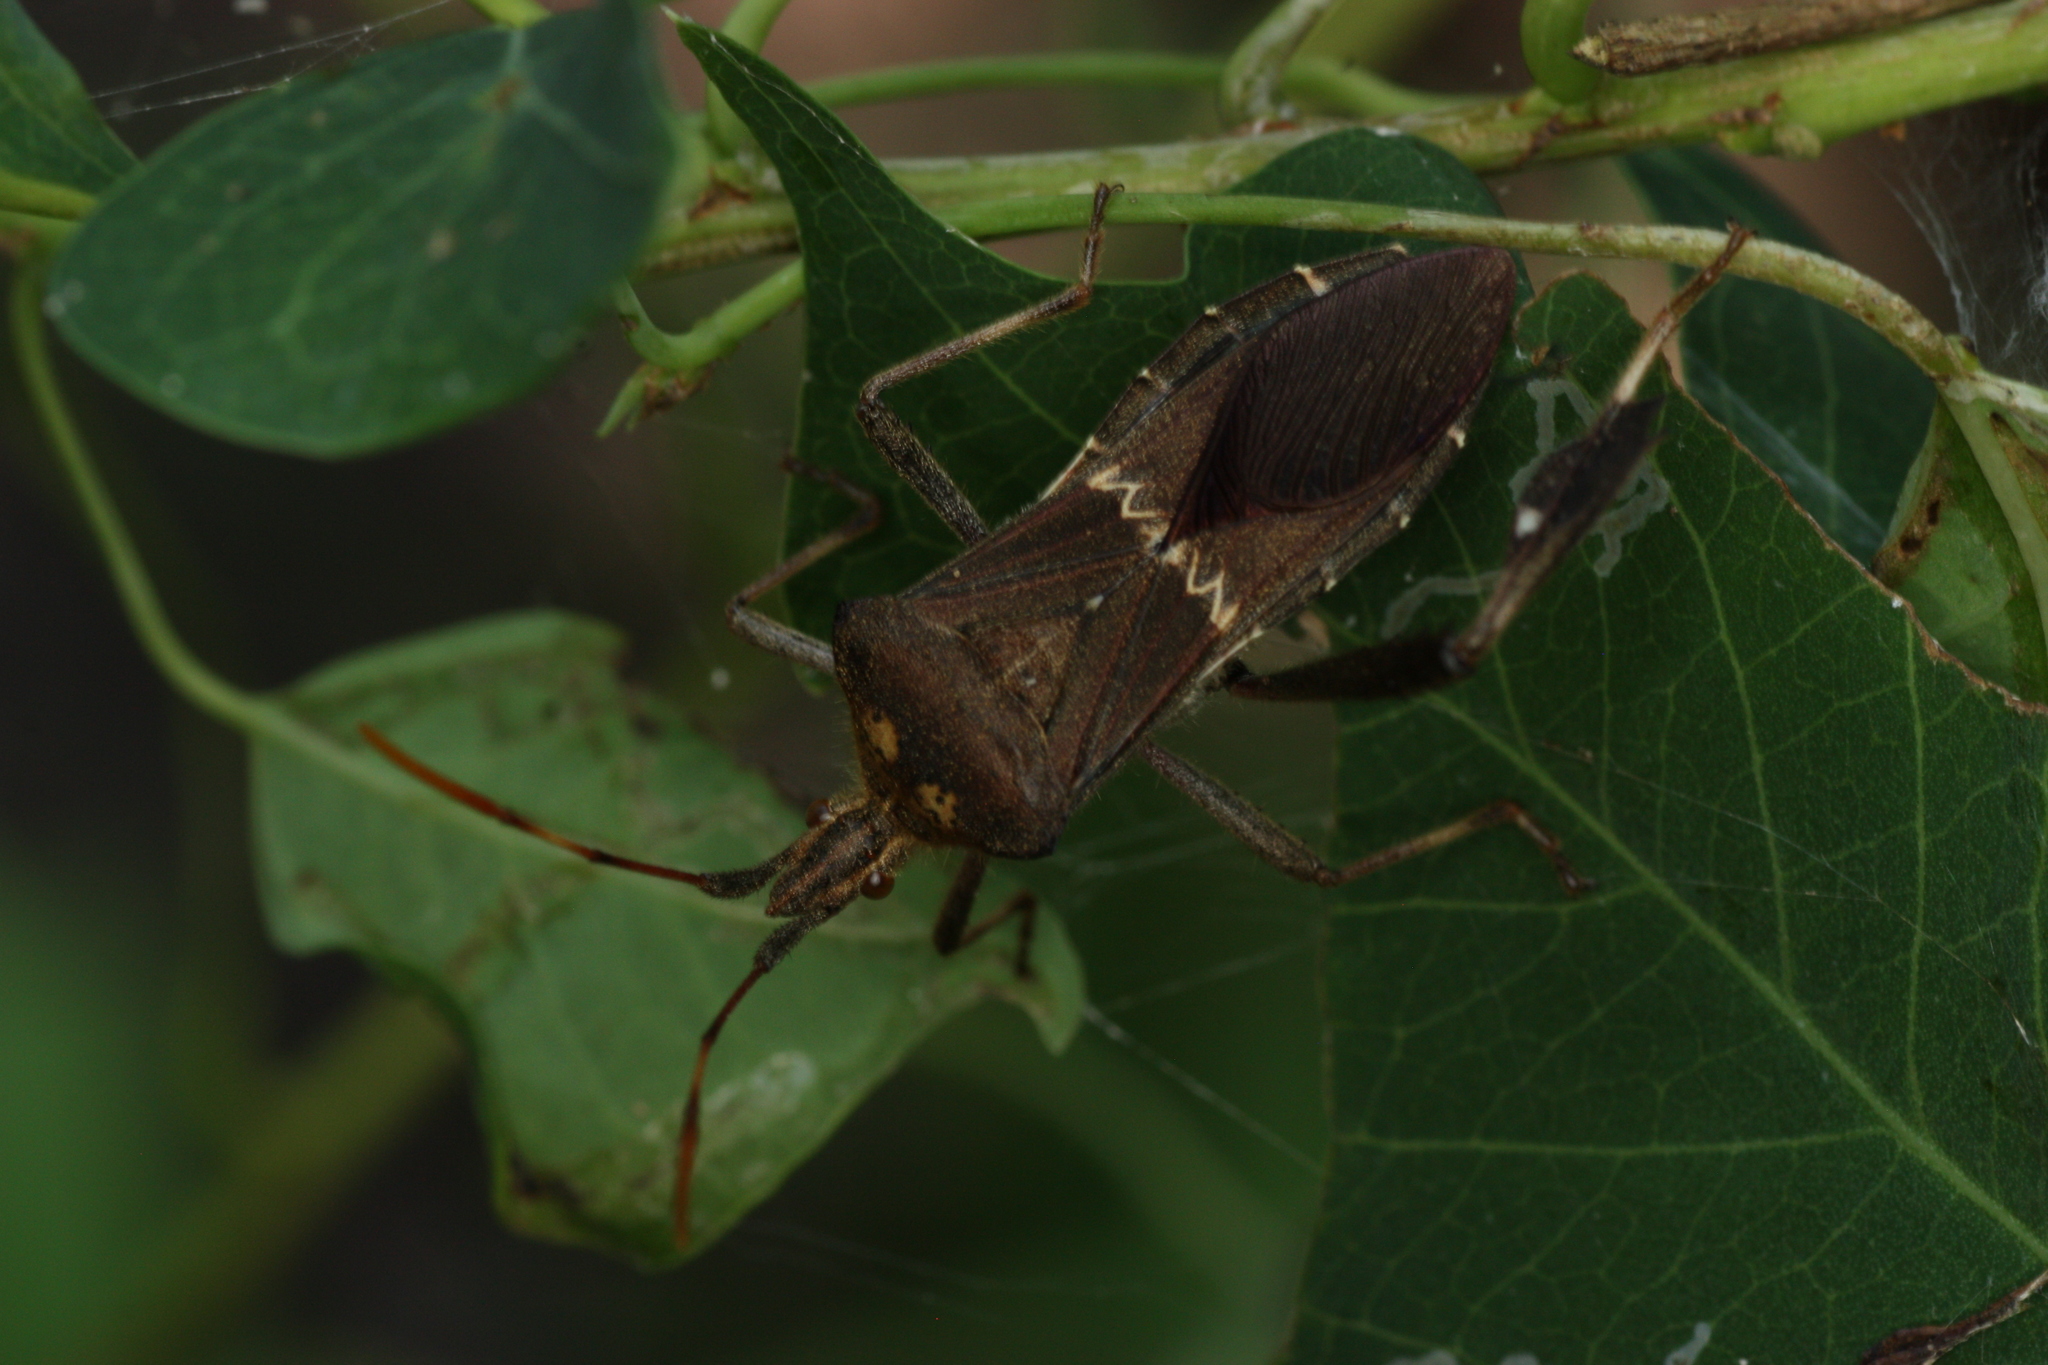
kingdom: Animalia
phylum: Arthropoda
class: Insecta
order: Hemiptera
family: Coreidae
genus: Leptoglossus
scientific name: Leptoglossus zonatus
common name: Large-legged bug
